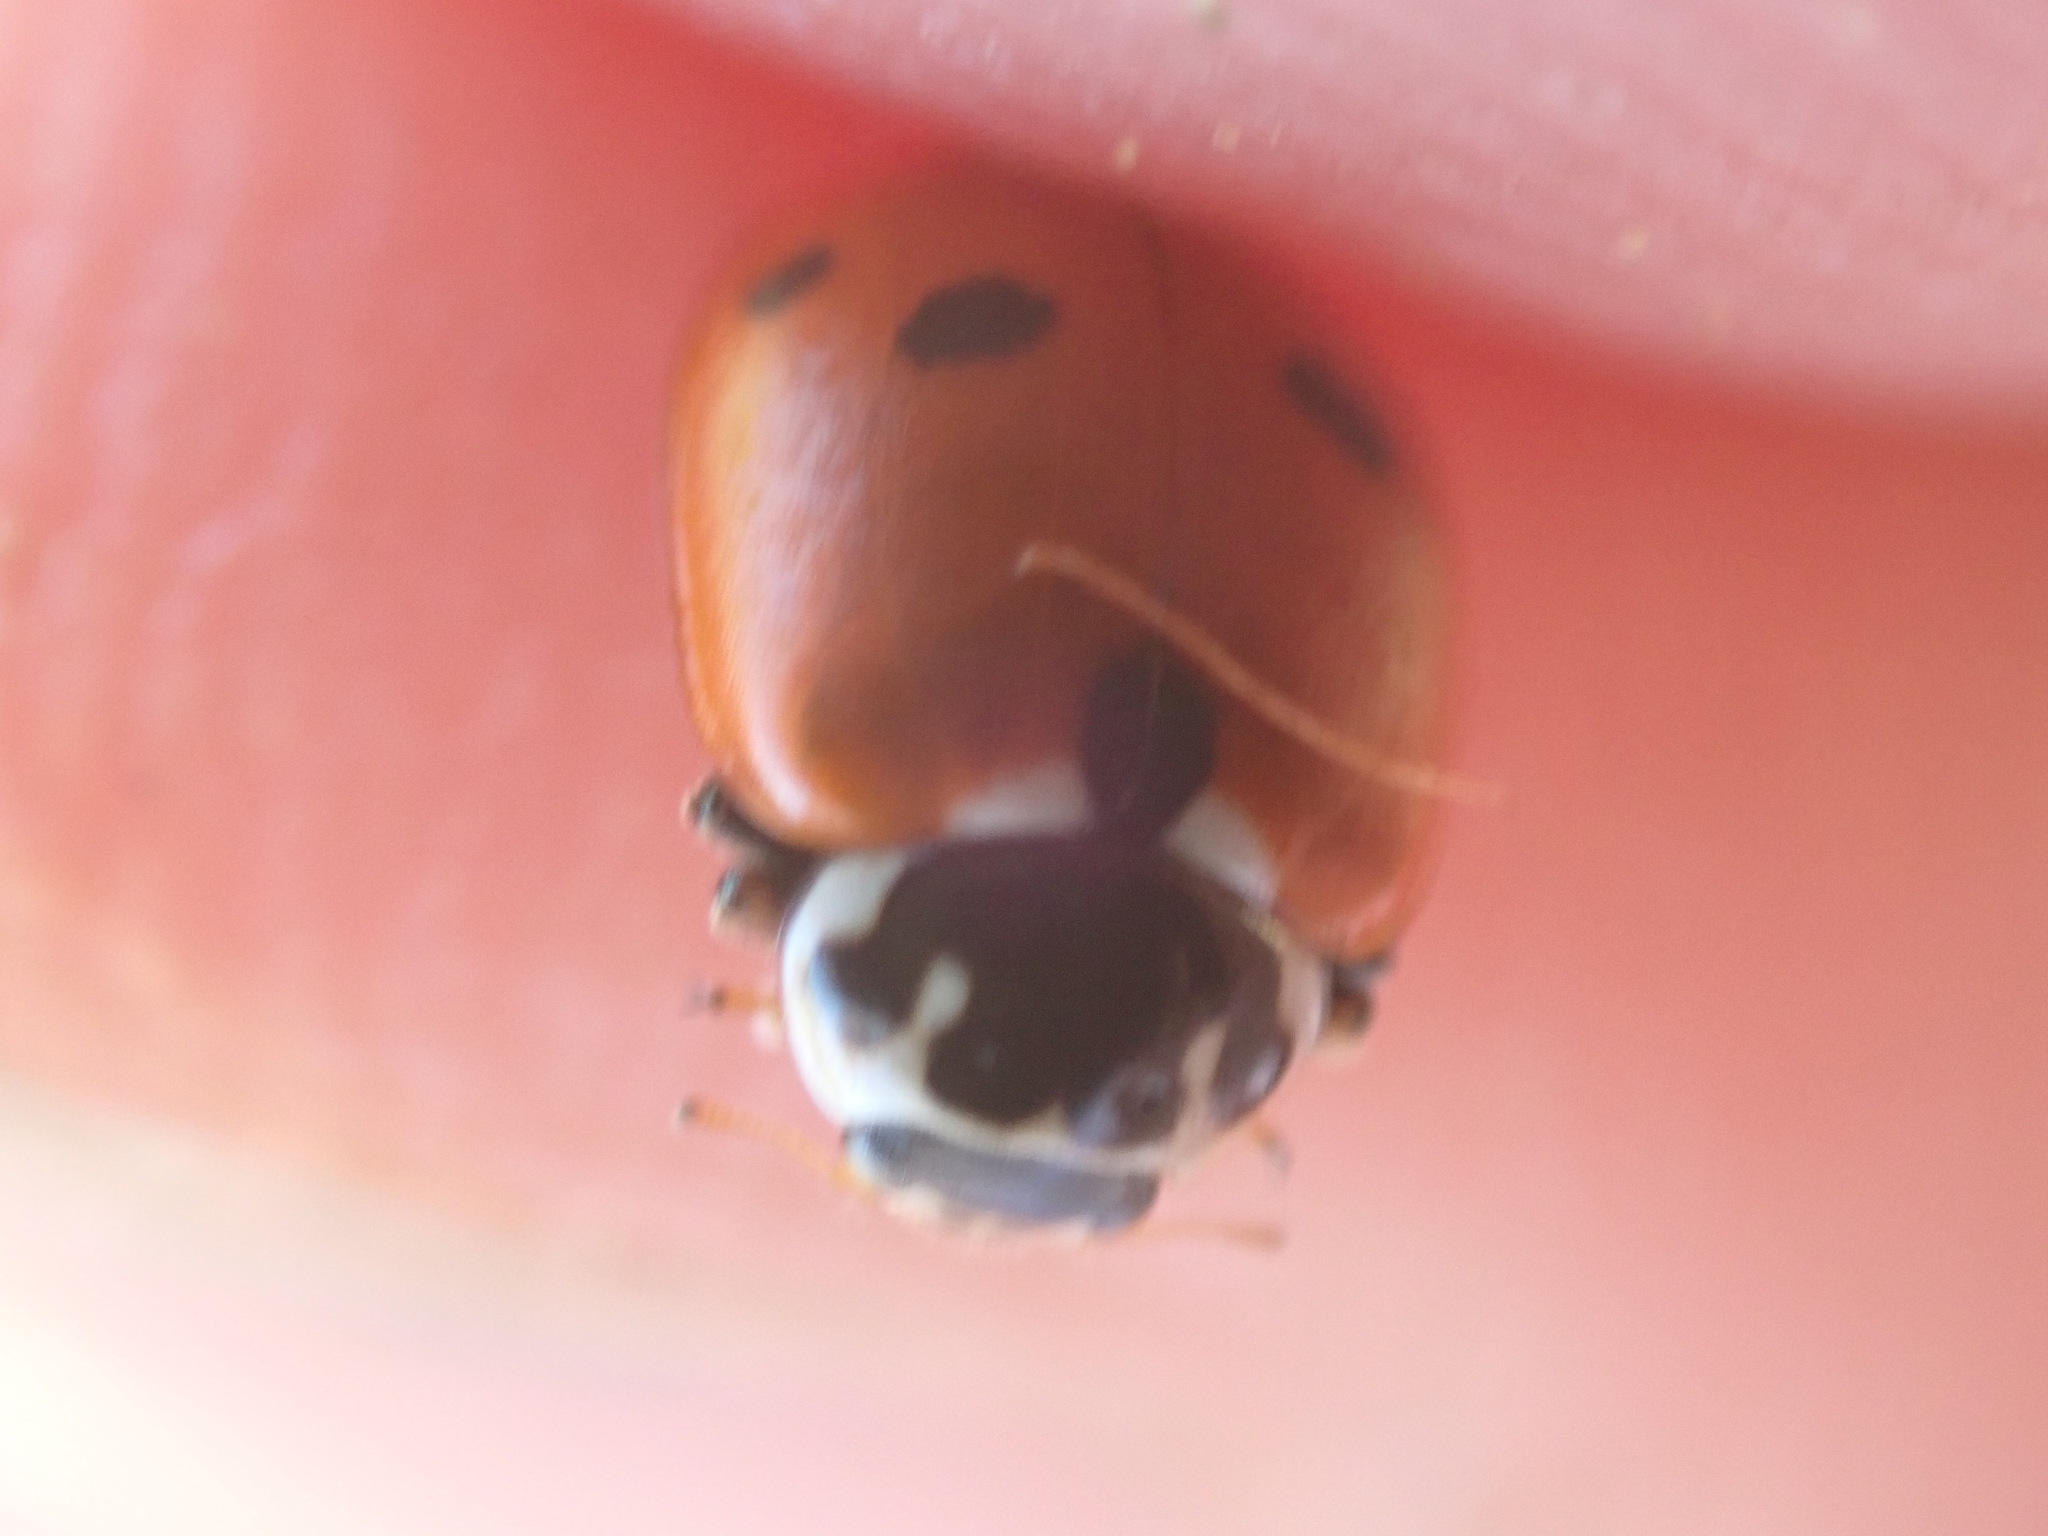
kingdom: Animalia
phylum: Arthropoda
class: Insecta
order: Coleoptera
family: Coccinellidae
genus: Hippodamia
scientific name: Hippodamia variegata
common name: Ladybird beetle
